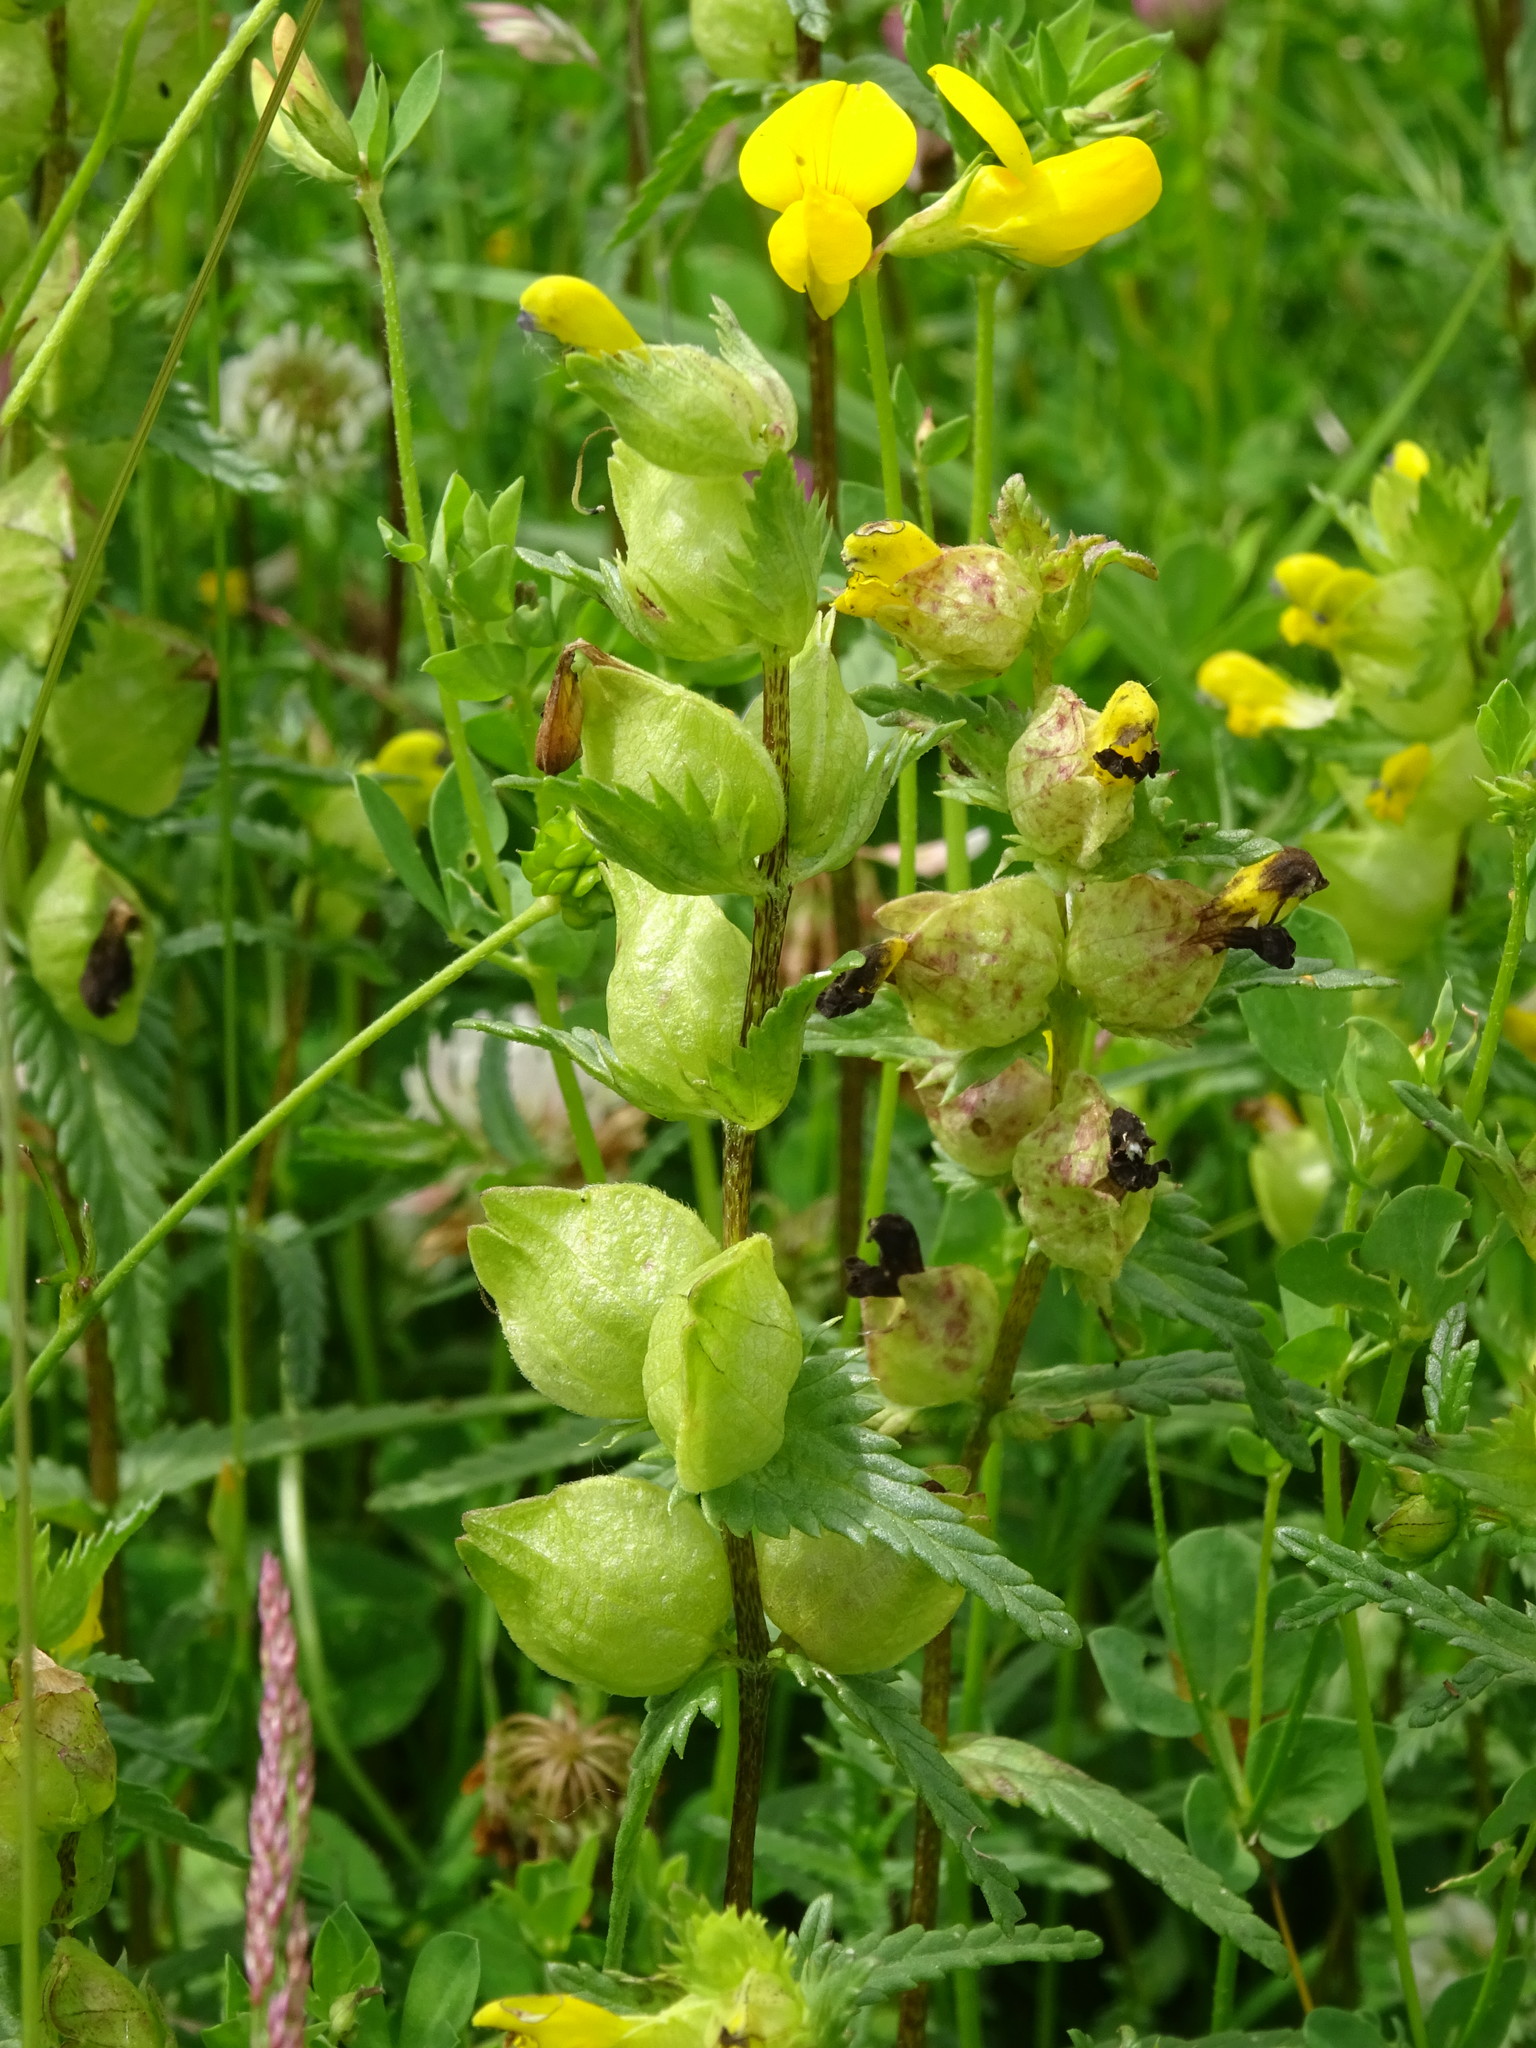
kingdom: Plantae
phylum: Tracheophyta
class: Magnoliopsida
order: Lamiales
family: Orobanchaceae
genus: Rhinanthus
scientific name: Rhinanthus minor
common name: Yellow-rattle
